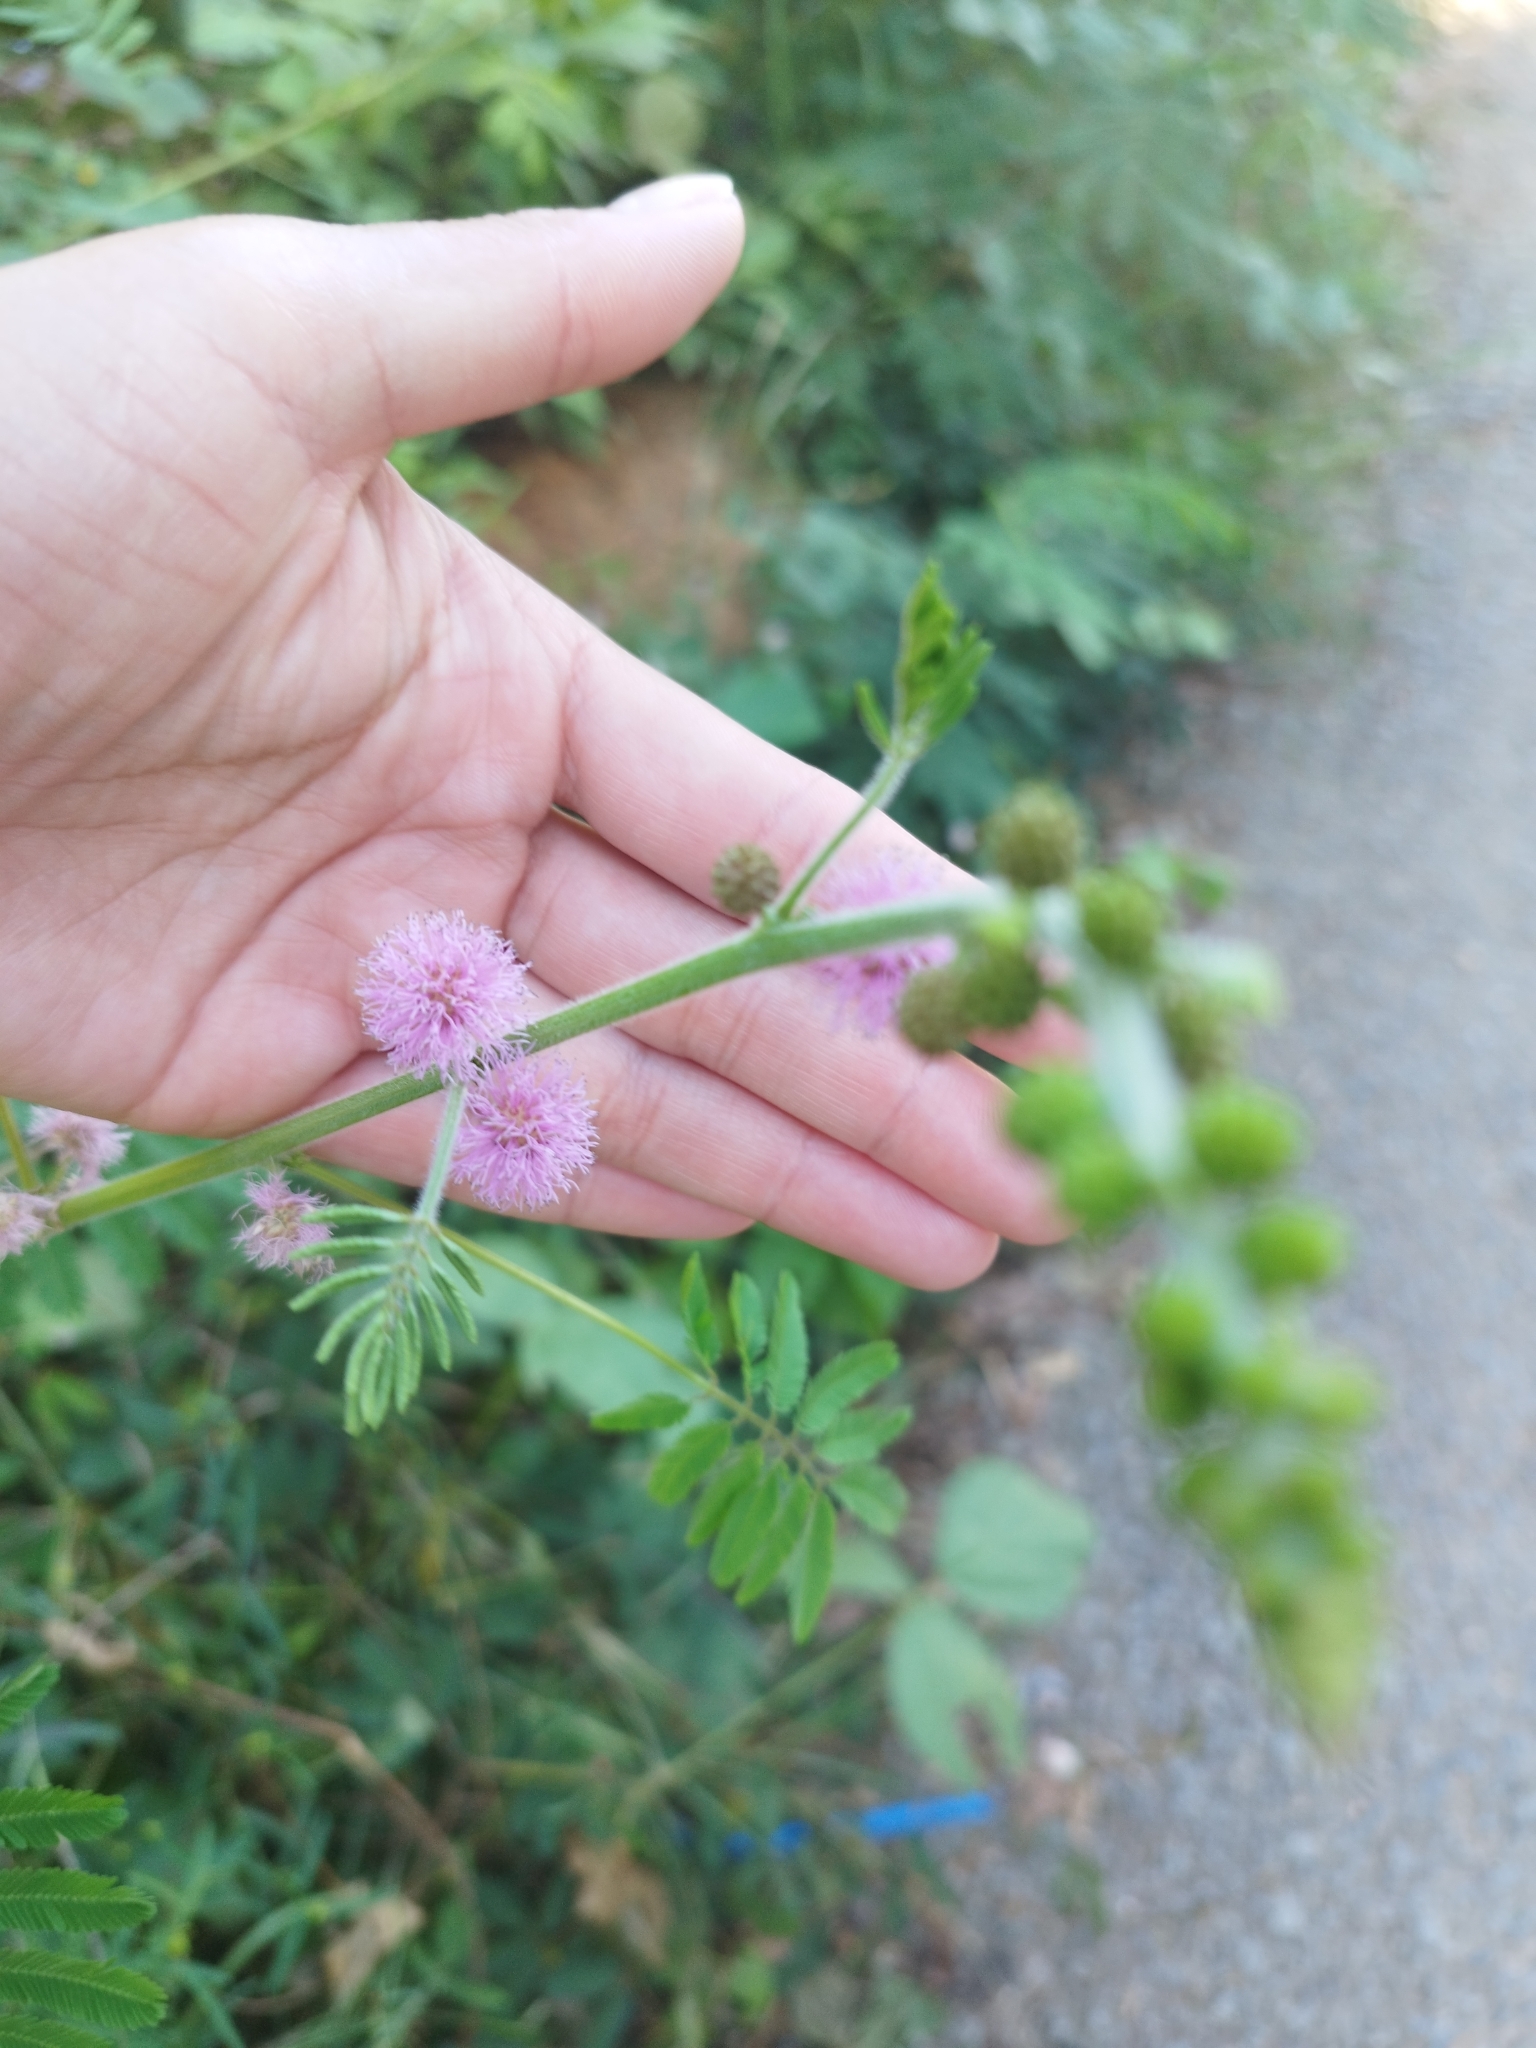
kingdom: Plantae
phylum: Tracheophyta
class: Magnoliopsida
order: Fabales
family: Fabaceae
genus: Mimosa
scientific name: Mimosa diplotricha
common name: Giant sensitive-plant
